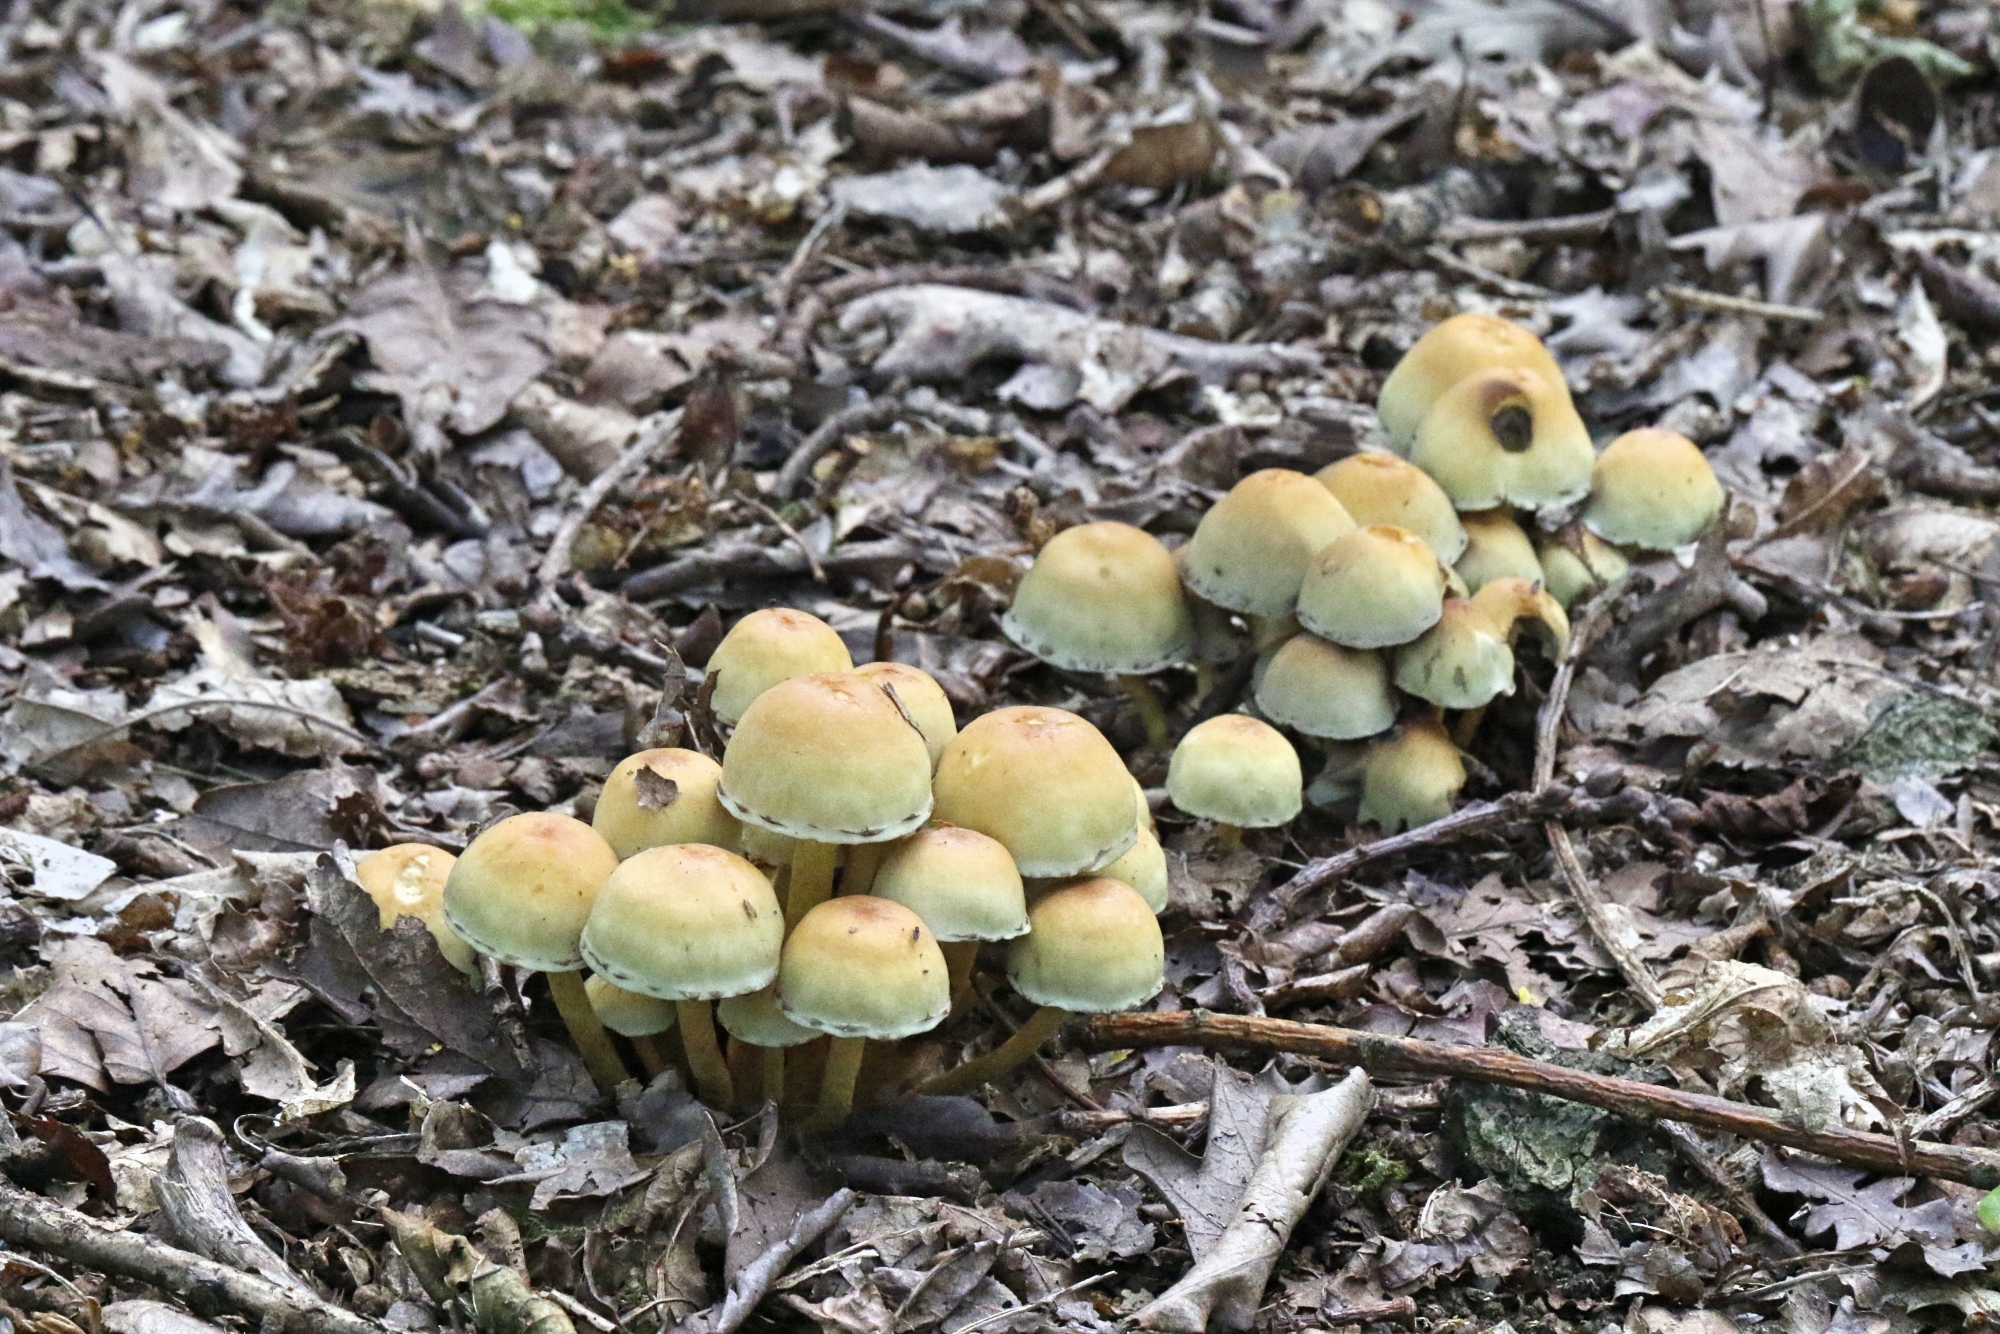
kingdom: Fungi
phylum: Basidiomycota
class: Agaricomycetes
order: Agaricales
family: Strophariaceae
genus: Hypholoma
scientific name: Hypholoma fasciculare
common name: Sulphur tuft
